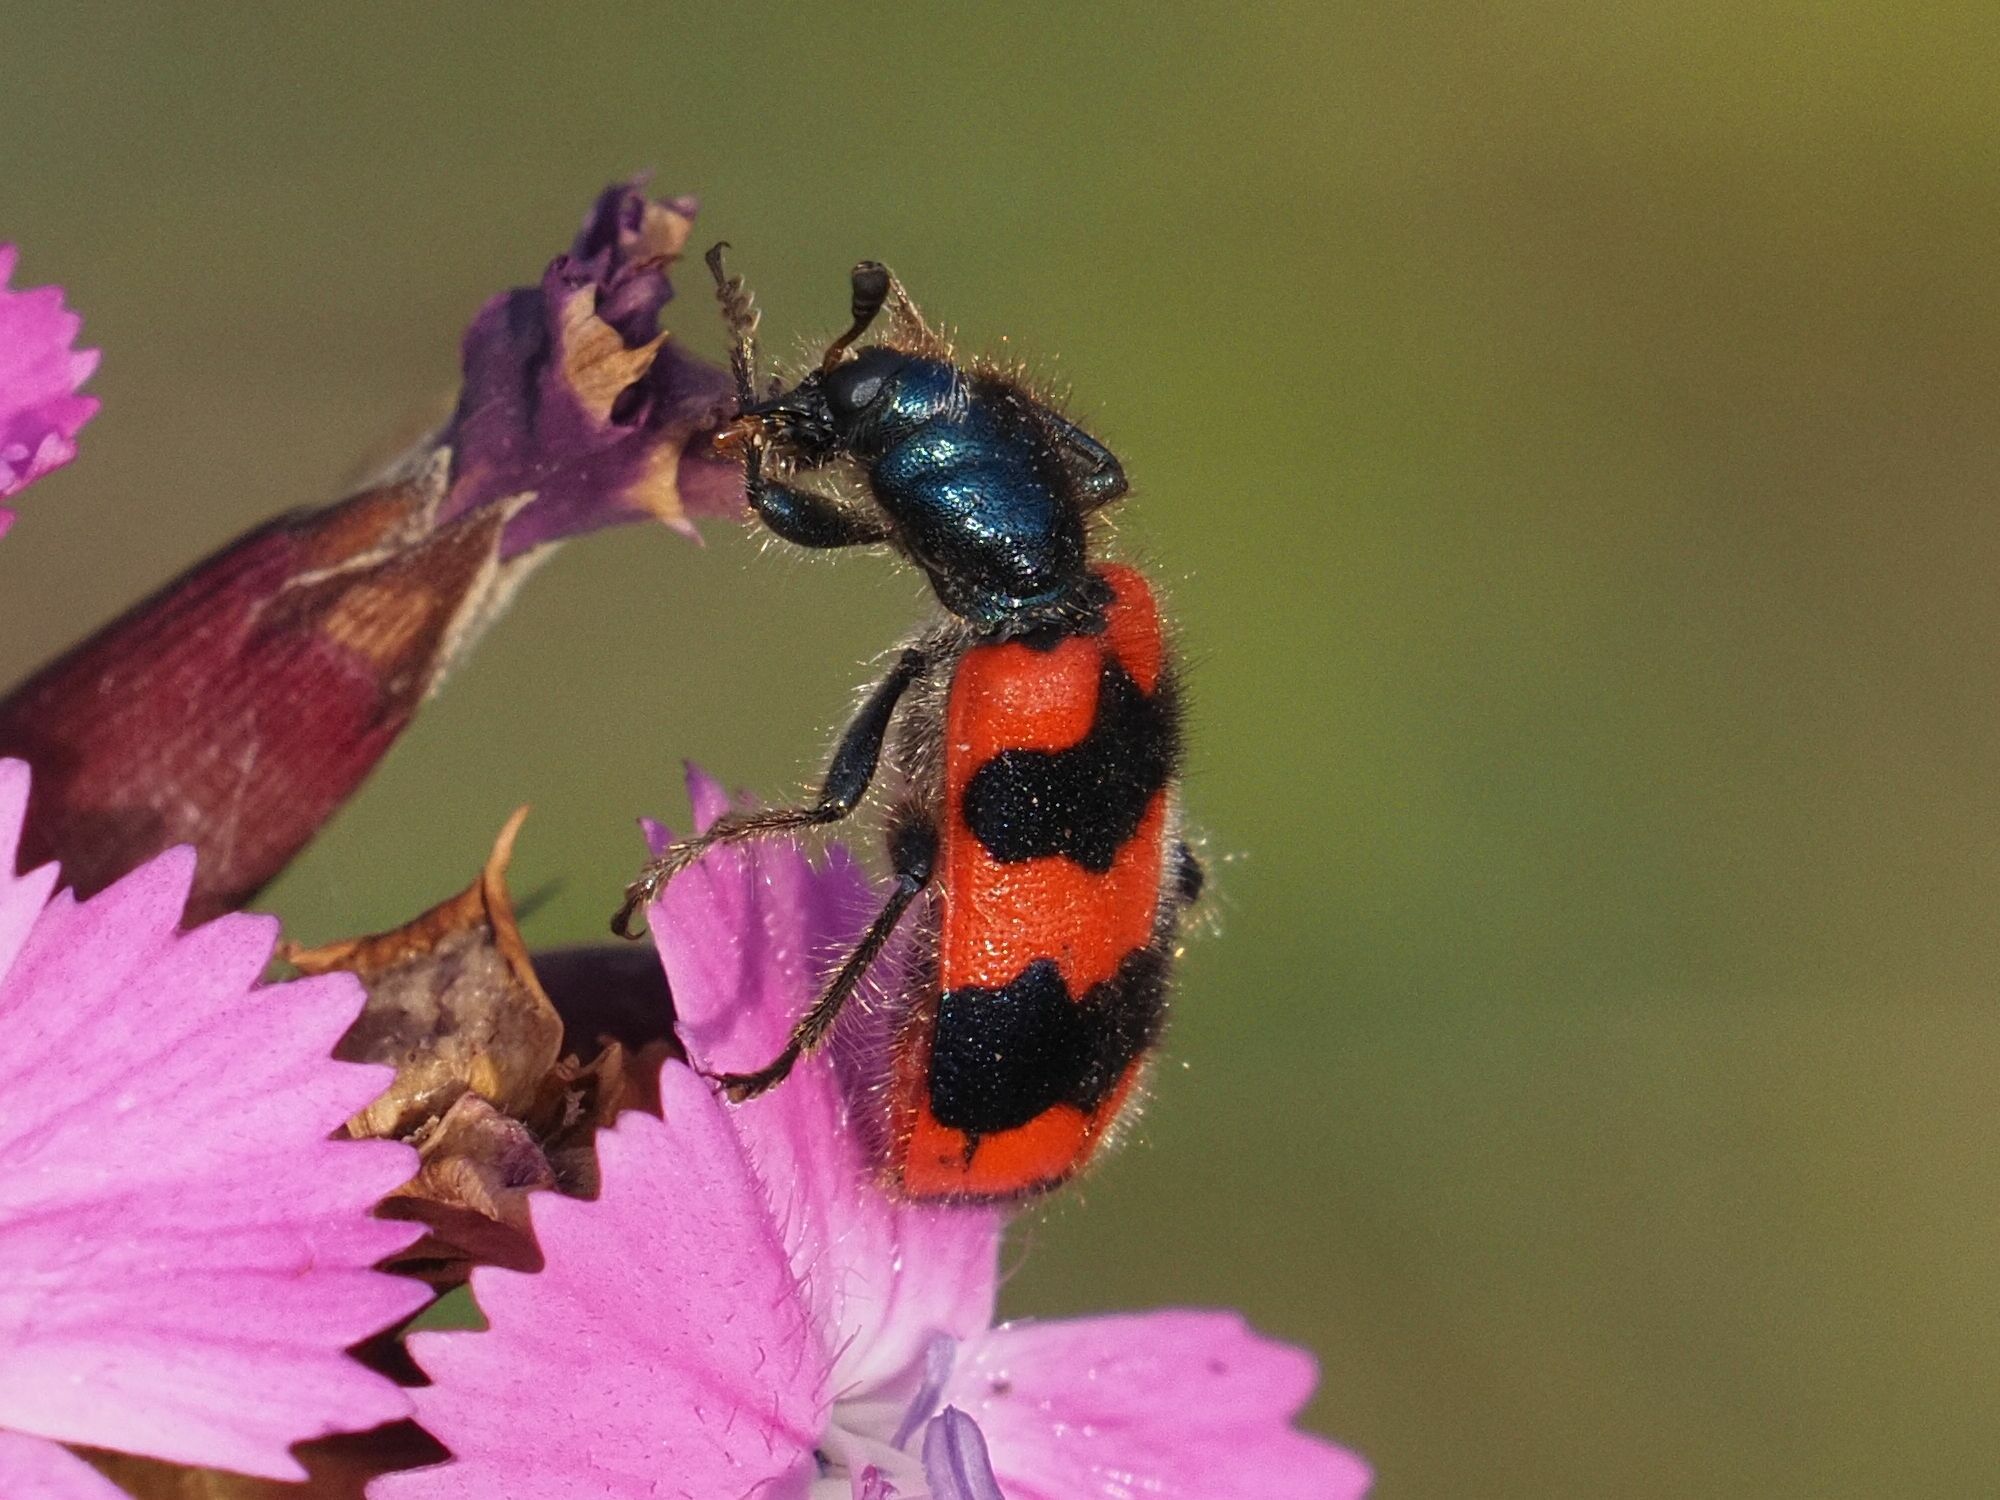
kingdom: Animalia
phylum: Arthropoda
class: Insecta
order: Coleoptera
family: Cleridae
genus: Trichodes
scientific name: Trichodes apiarius
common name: Bee-eating beetle
